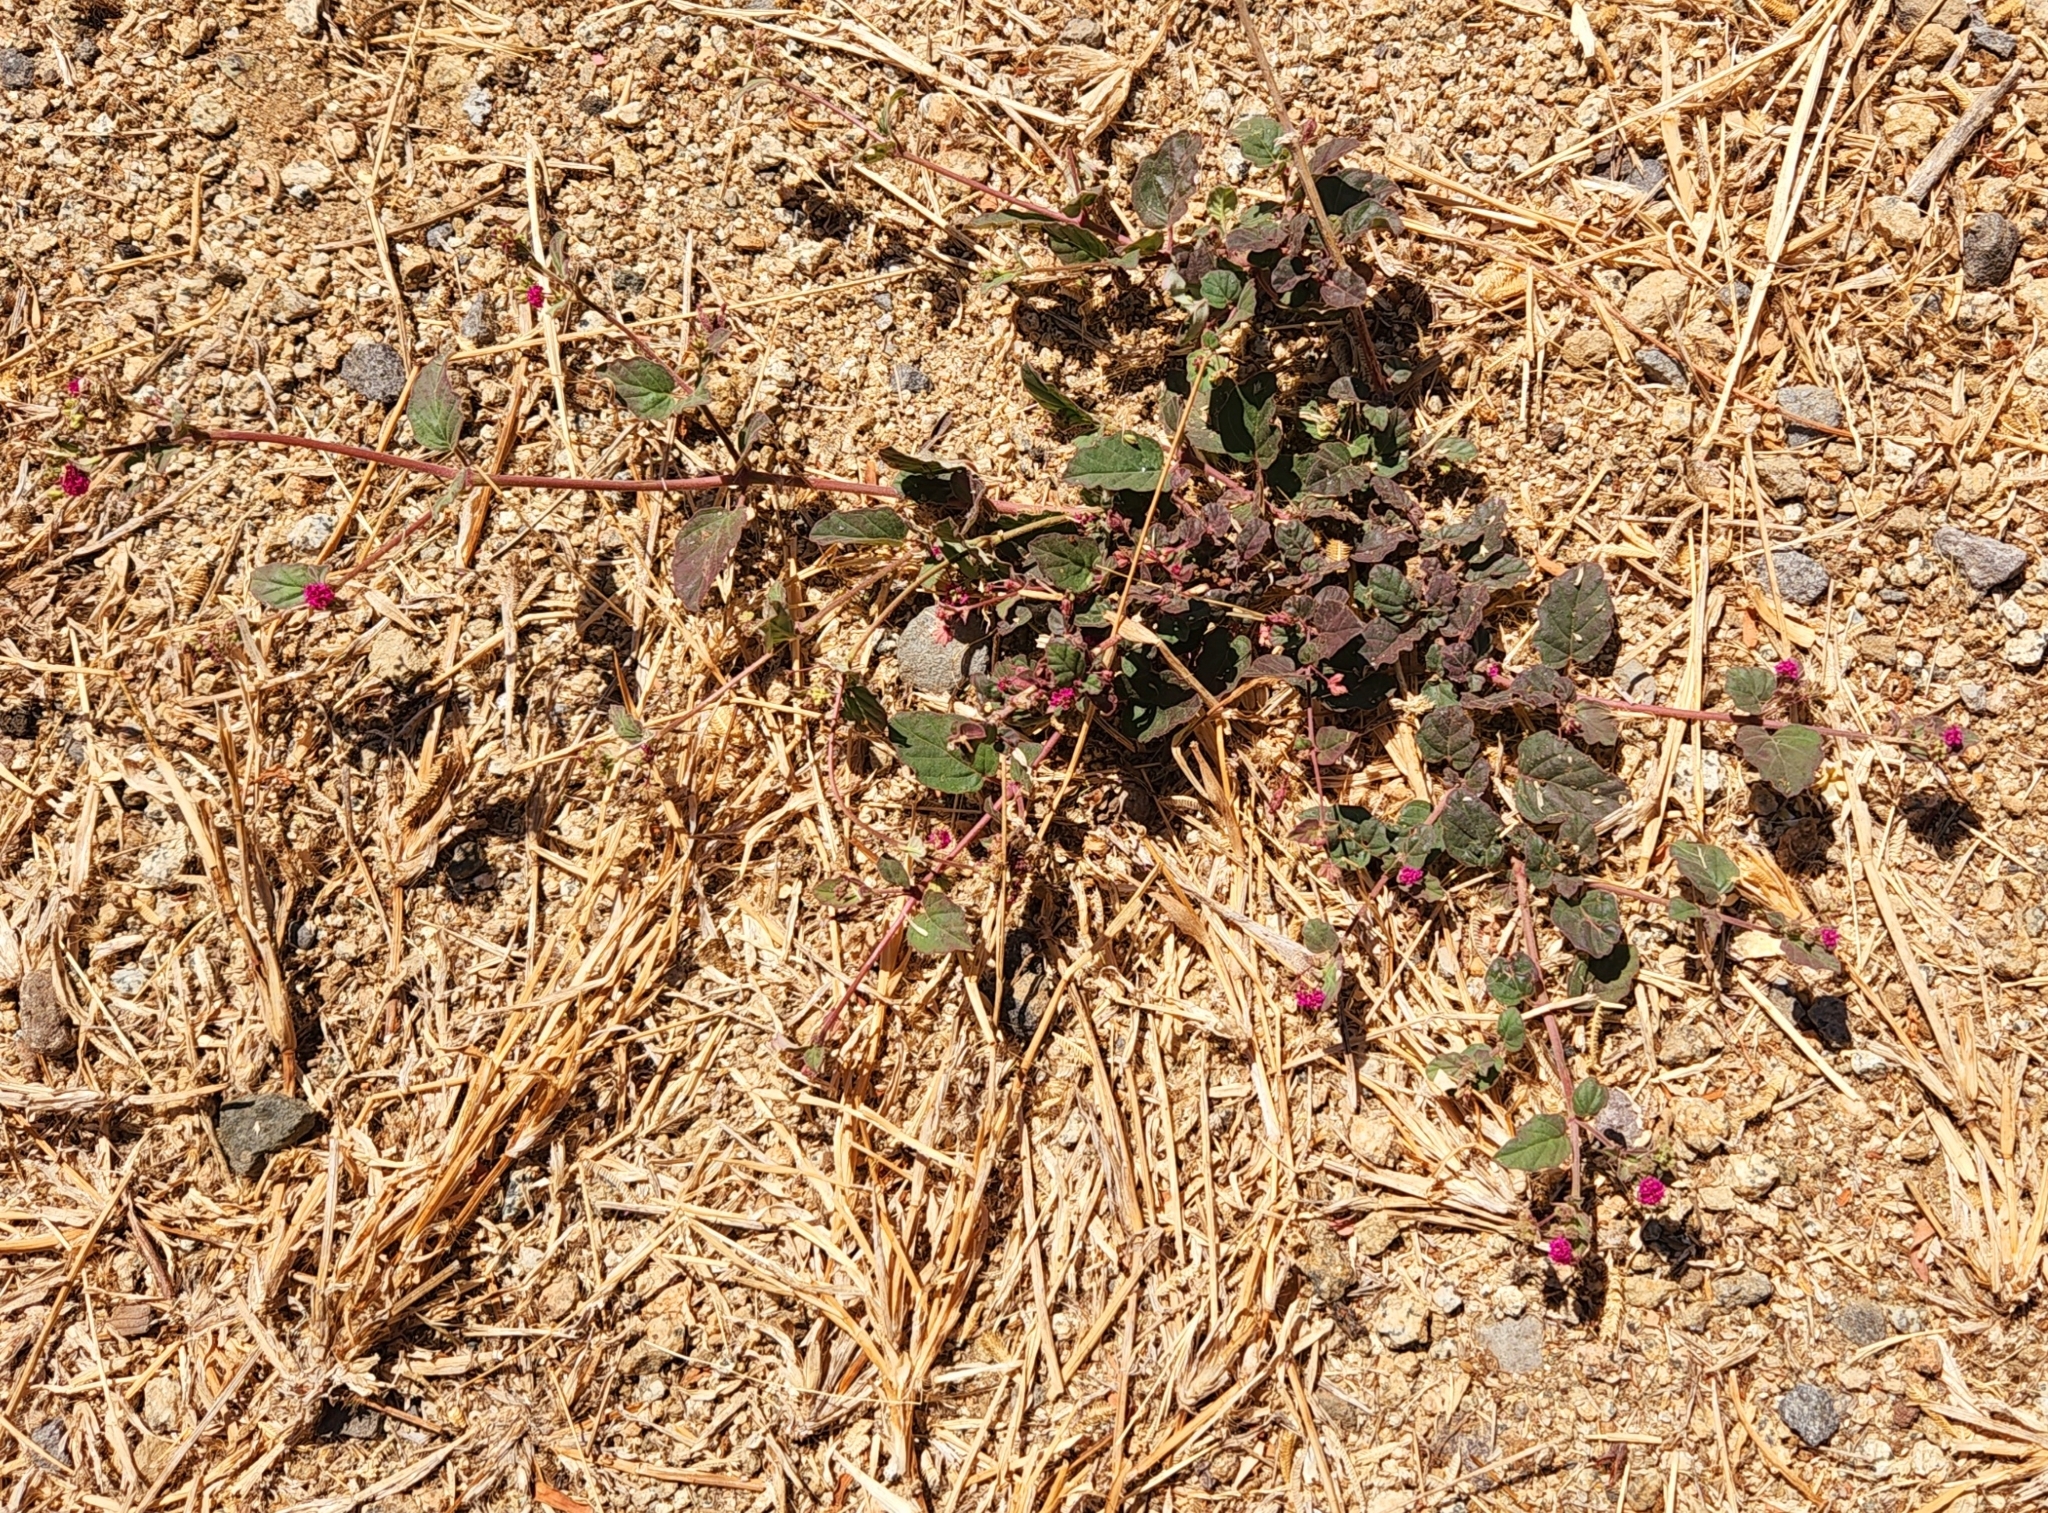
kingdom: Plantae
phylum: Tracheophyta
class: Magnoliopsida
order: Caryophyllales
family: Nyctaginaceae
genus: Boerhavia
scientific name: Boerhavia coccinea
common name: Scarlet spiderling
